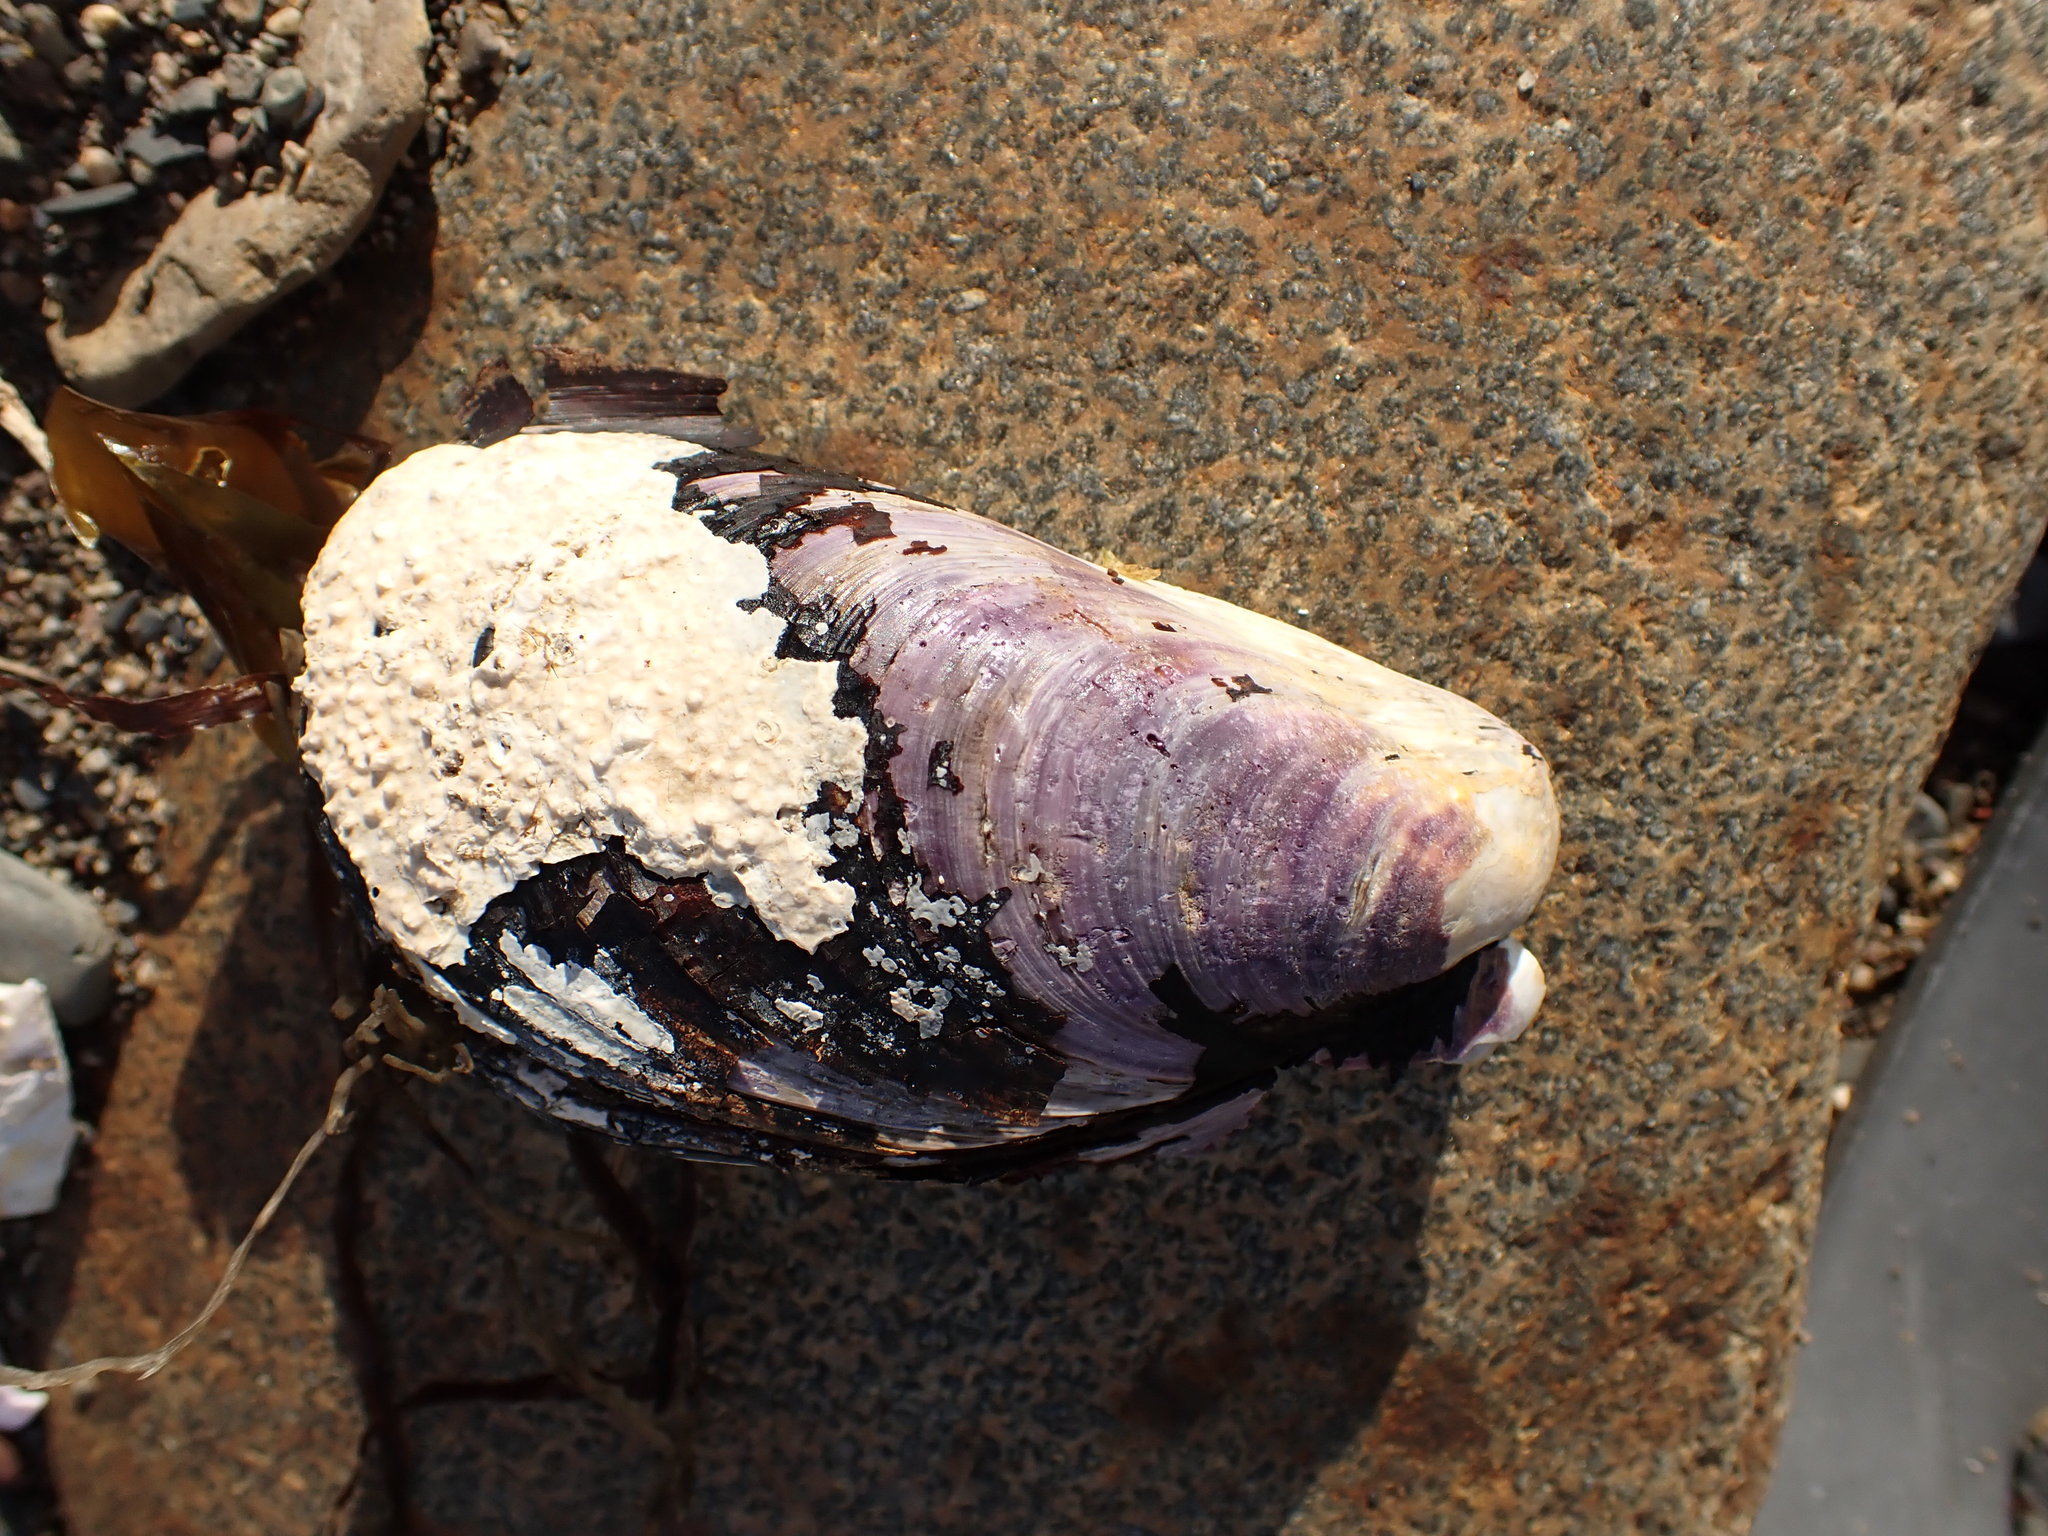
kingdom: Animalia
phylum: Mollusca
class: Bivalvia
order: Mytilida
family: Mytilidae
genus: Modiolus
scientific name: Modiolus modiolus
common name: Horse-mussel
